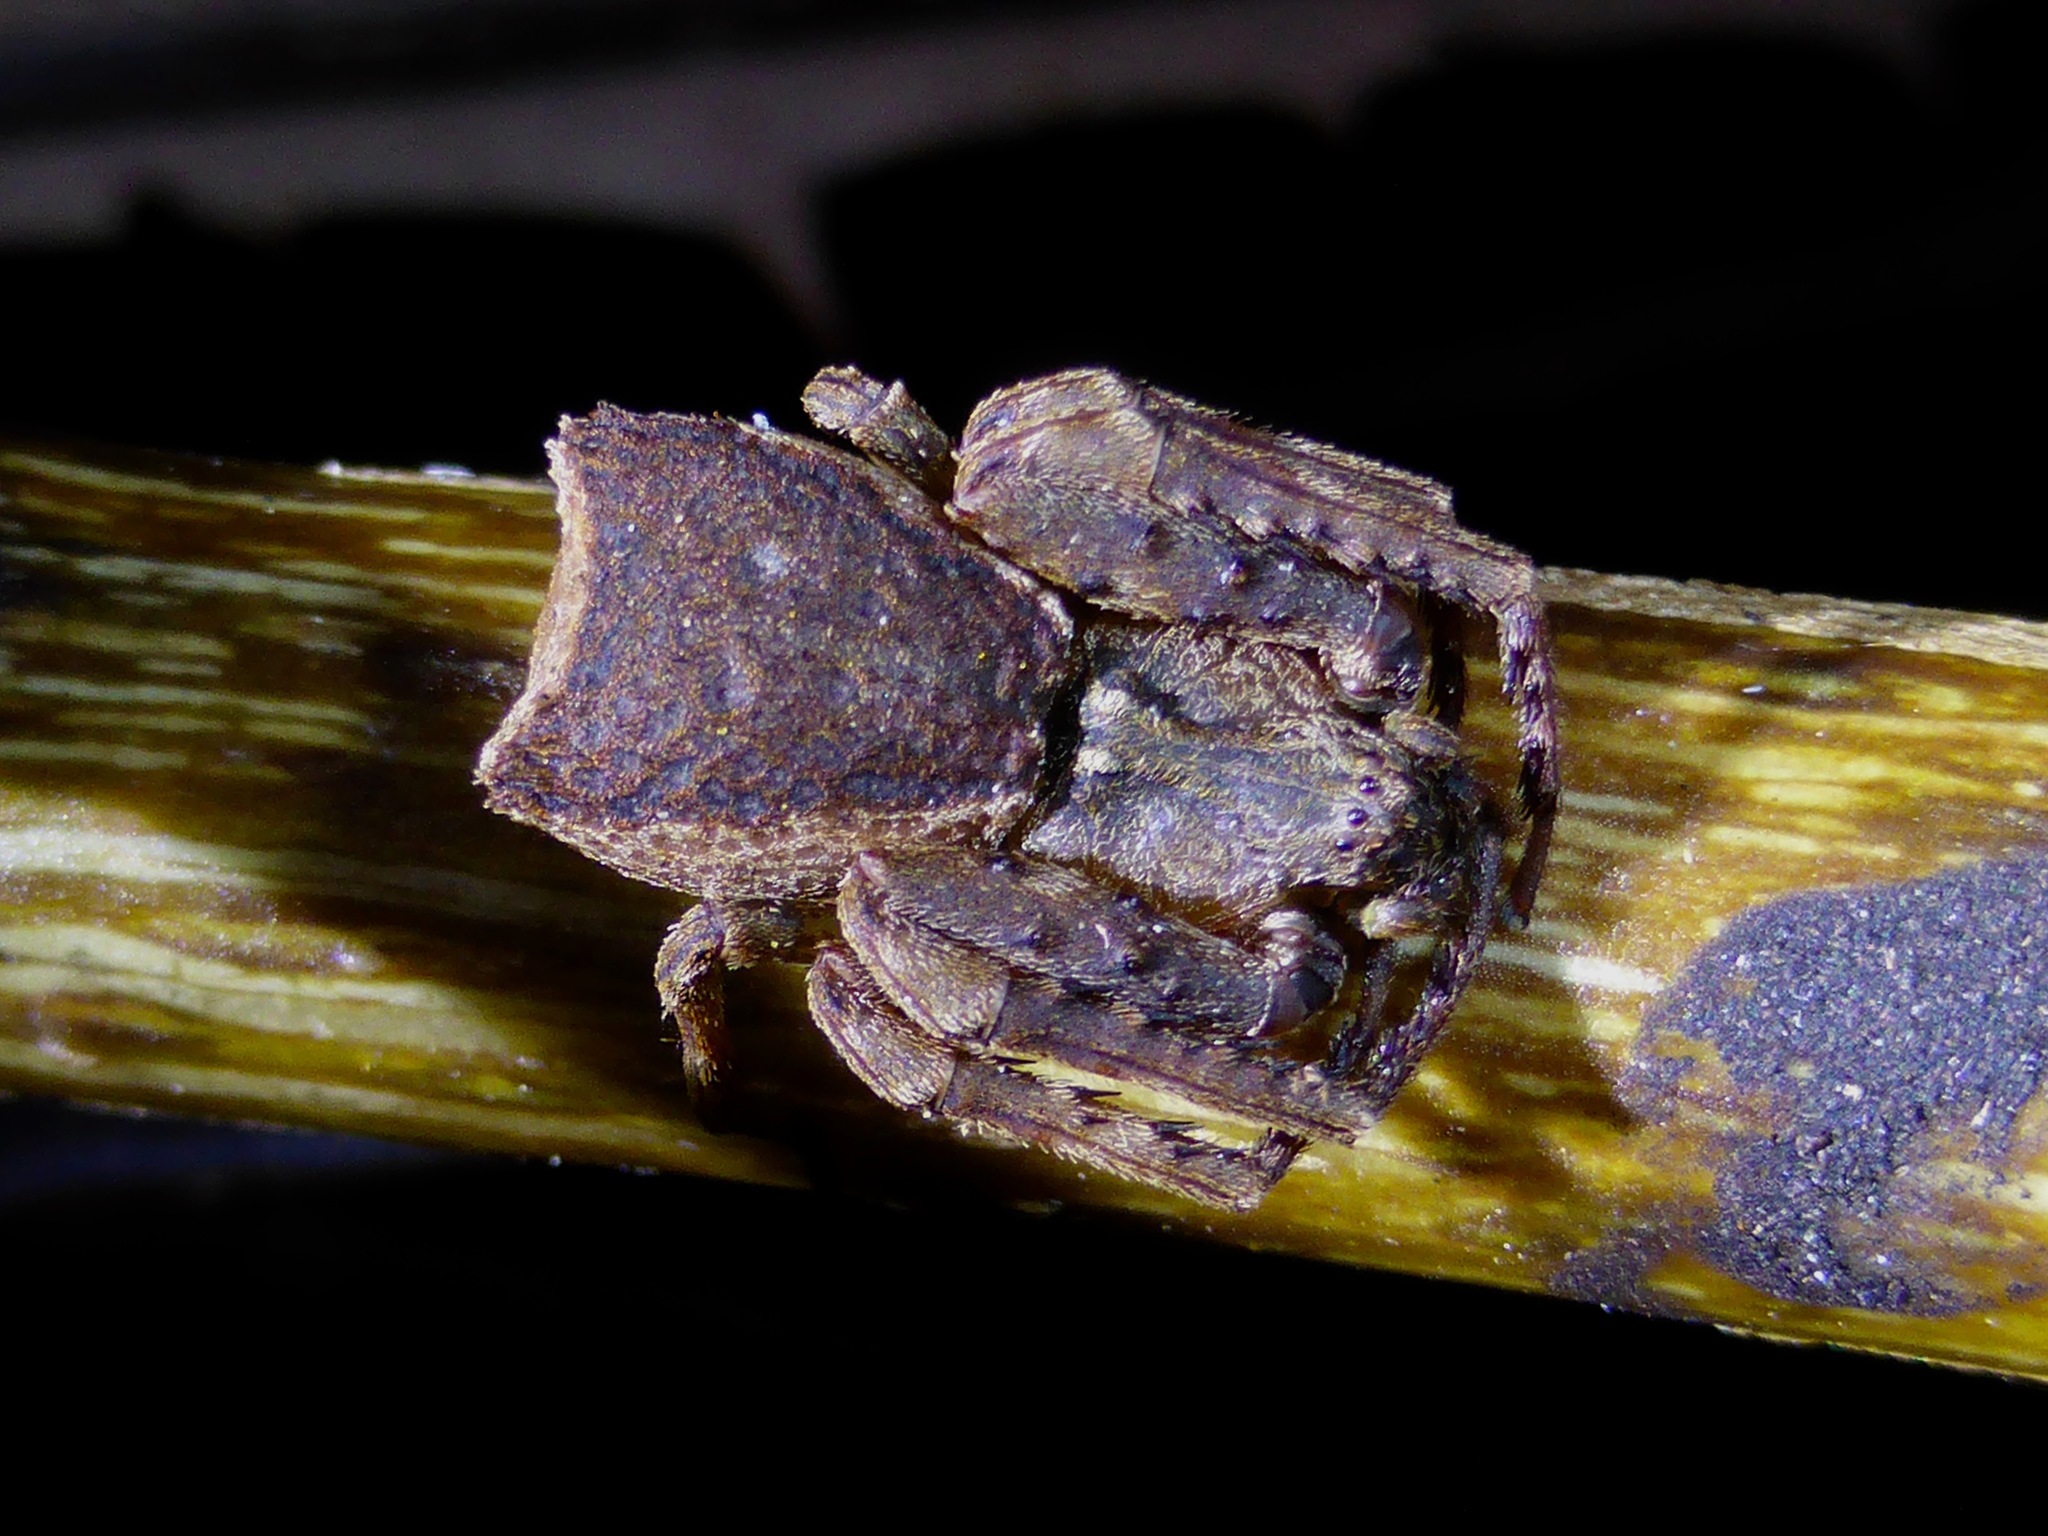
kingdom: Animalia
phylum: Arthropoda
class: Arachnida
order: Araneae
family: Thomisidae
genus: Sidymella
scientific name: Sidymella angularis
